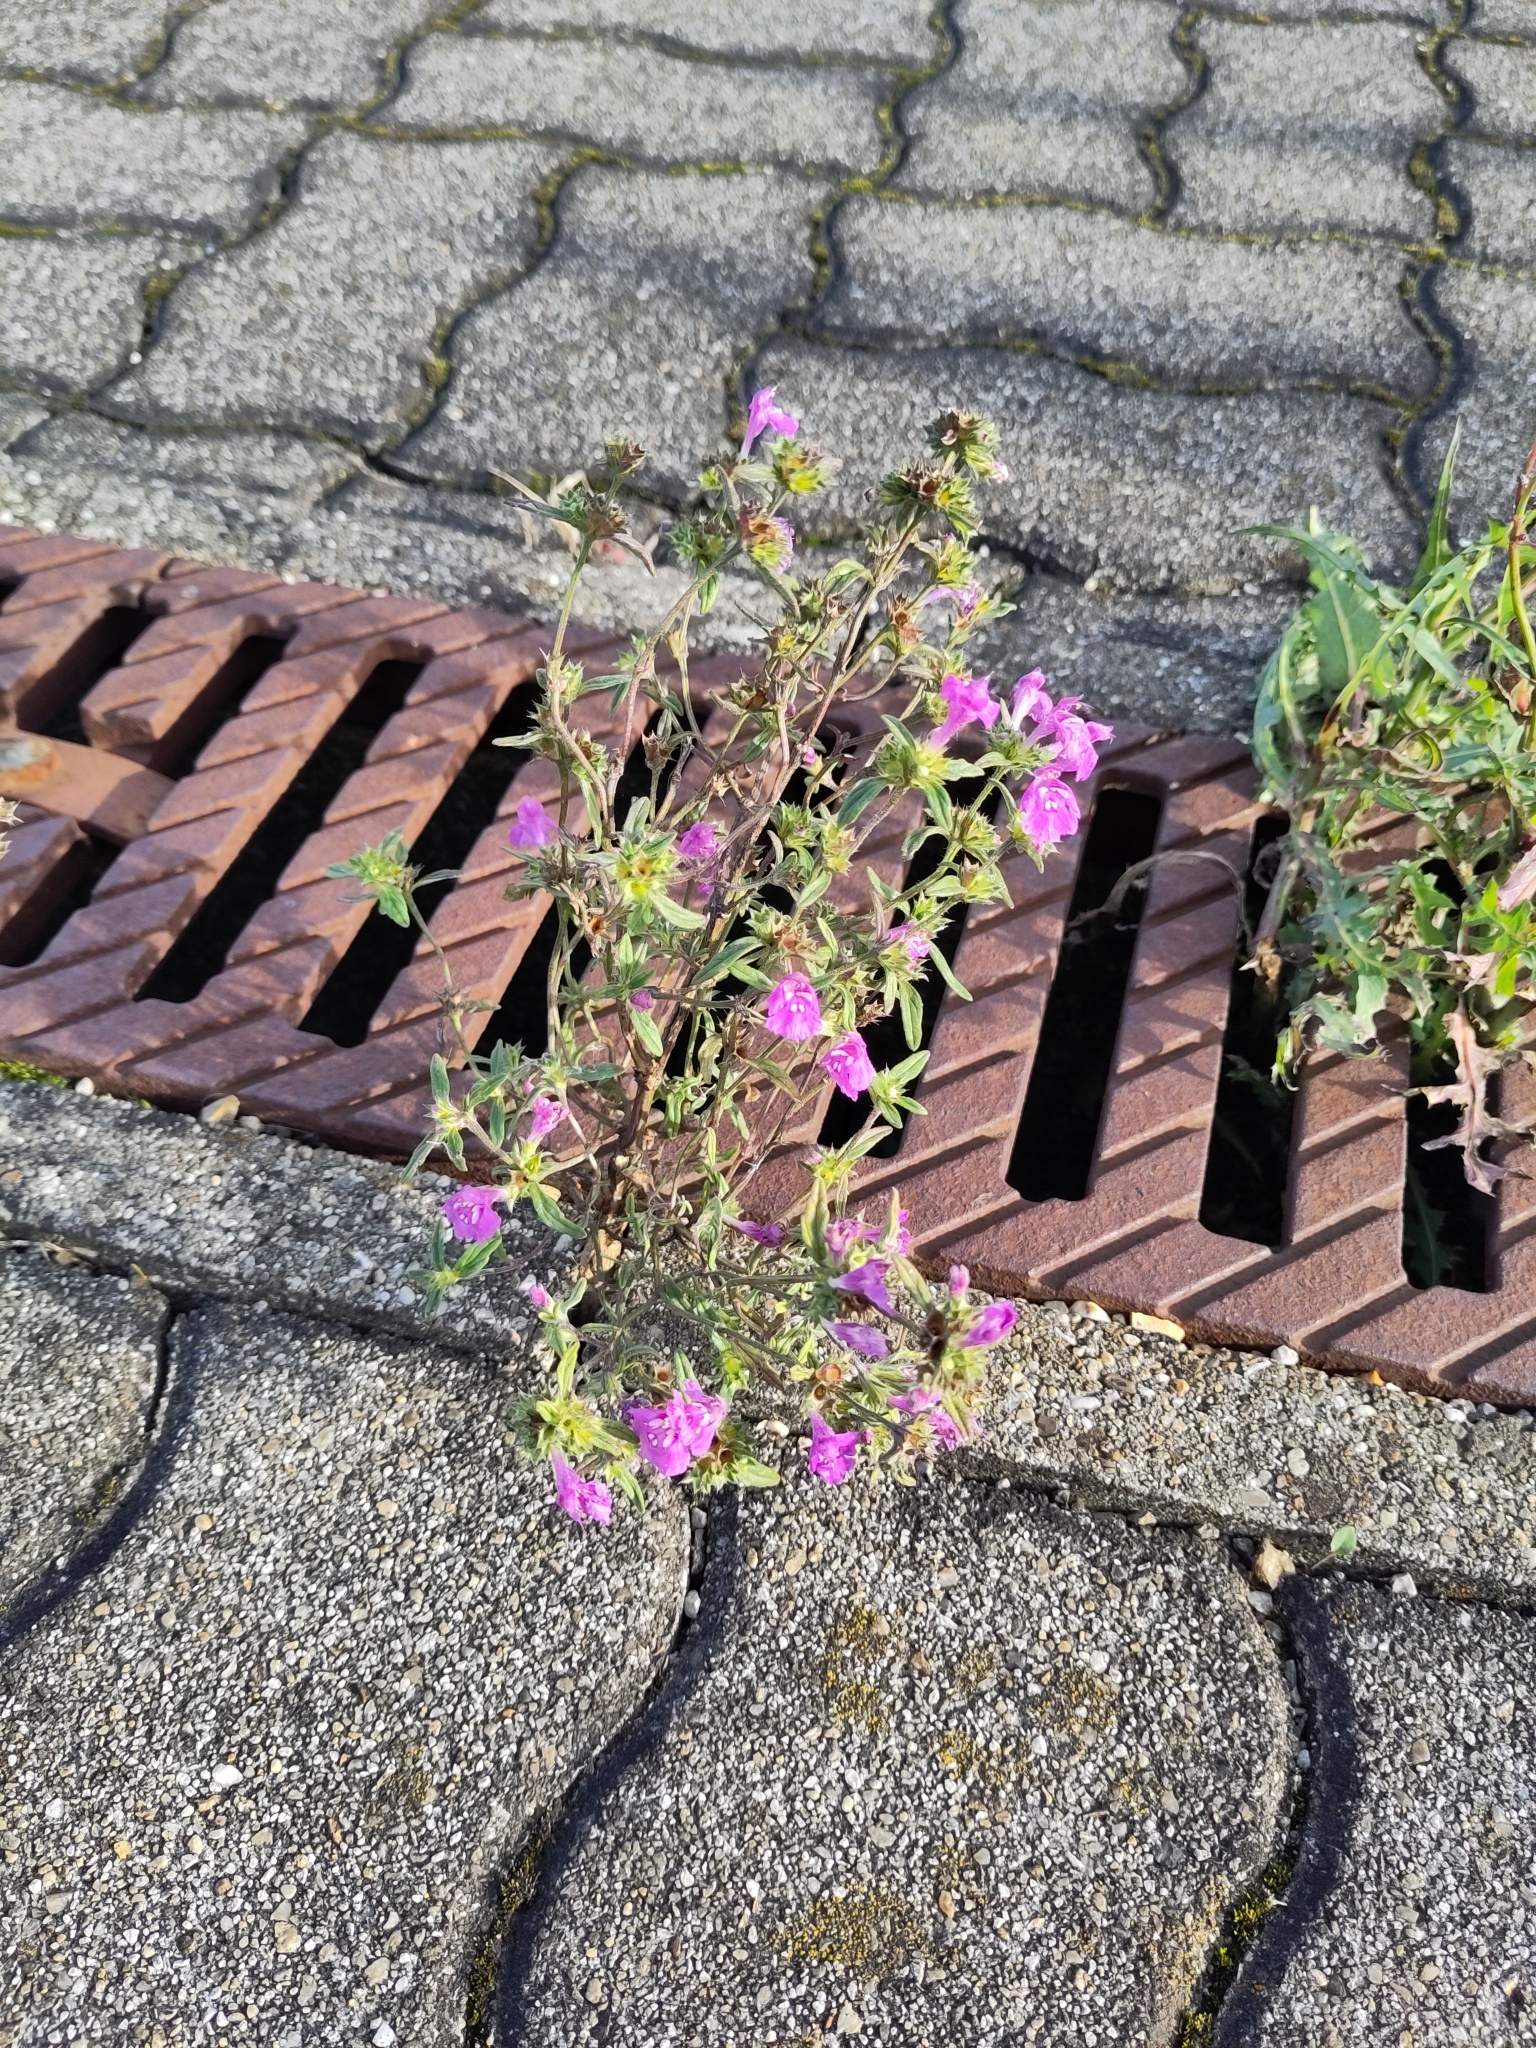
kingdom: Plantae
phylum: Tracheophyta
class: Magnoliopsida
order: Lamiales
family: Lamiaceae
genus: Galeopsis
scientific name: Galeopsis angustifolia
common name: Red hemp-nettle
